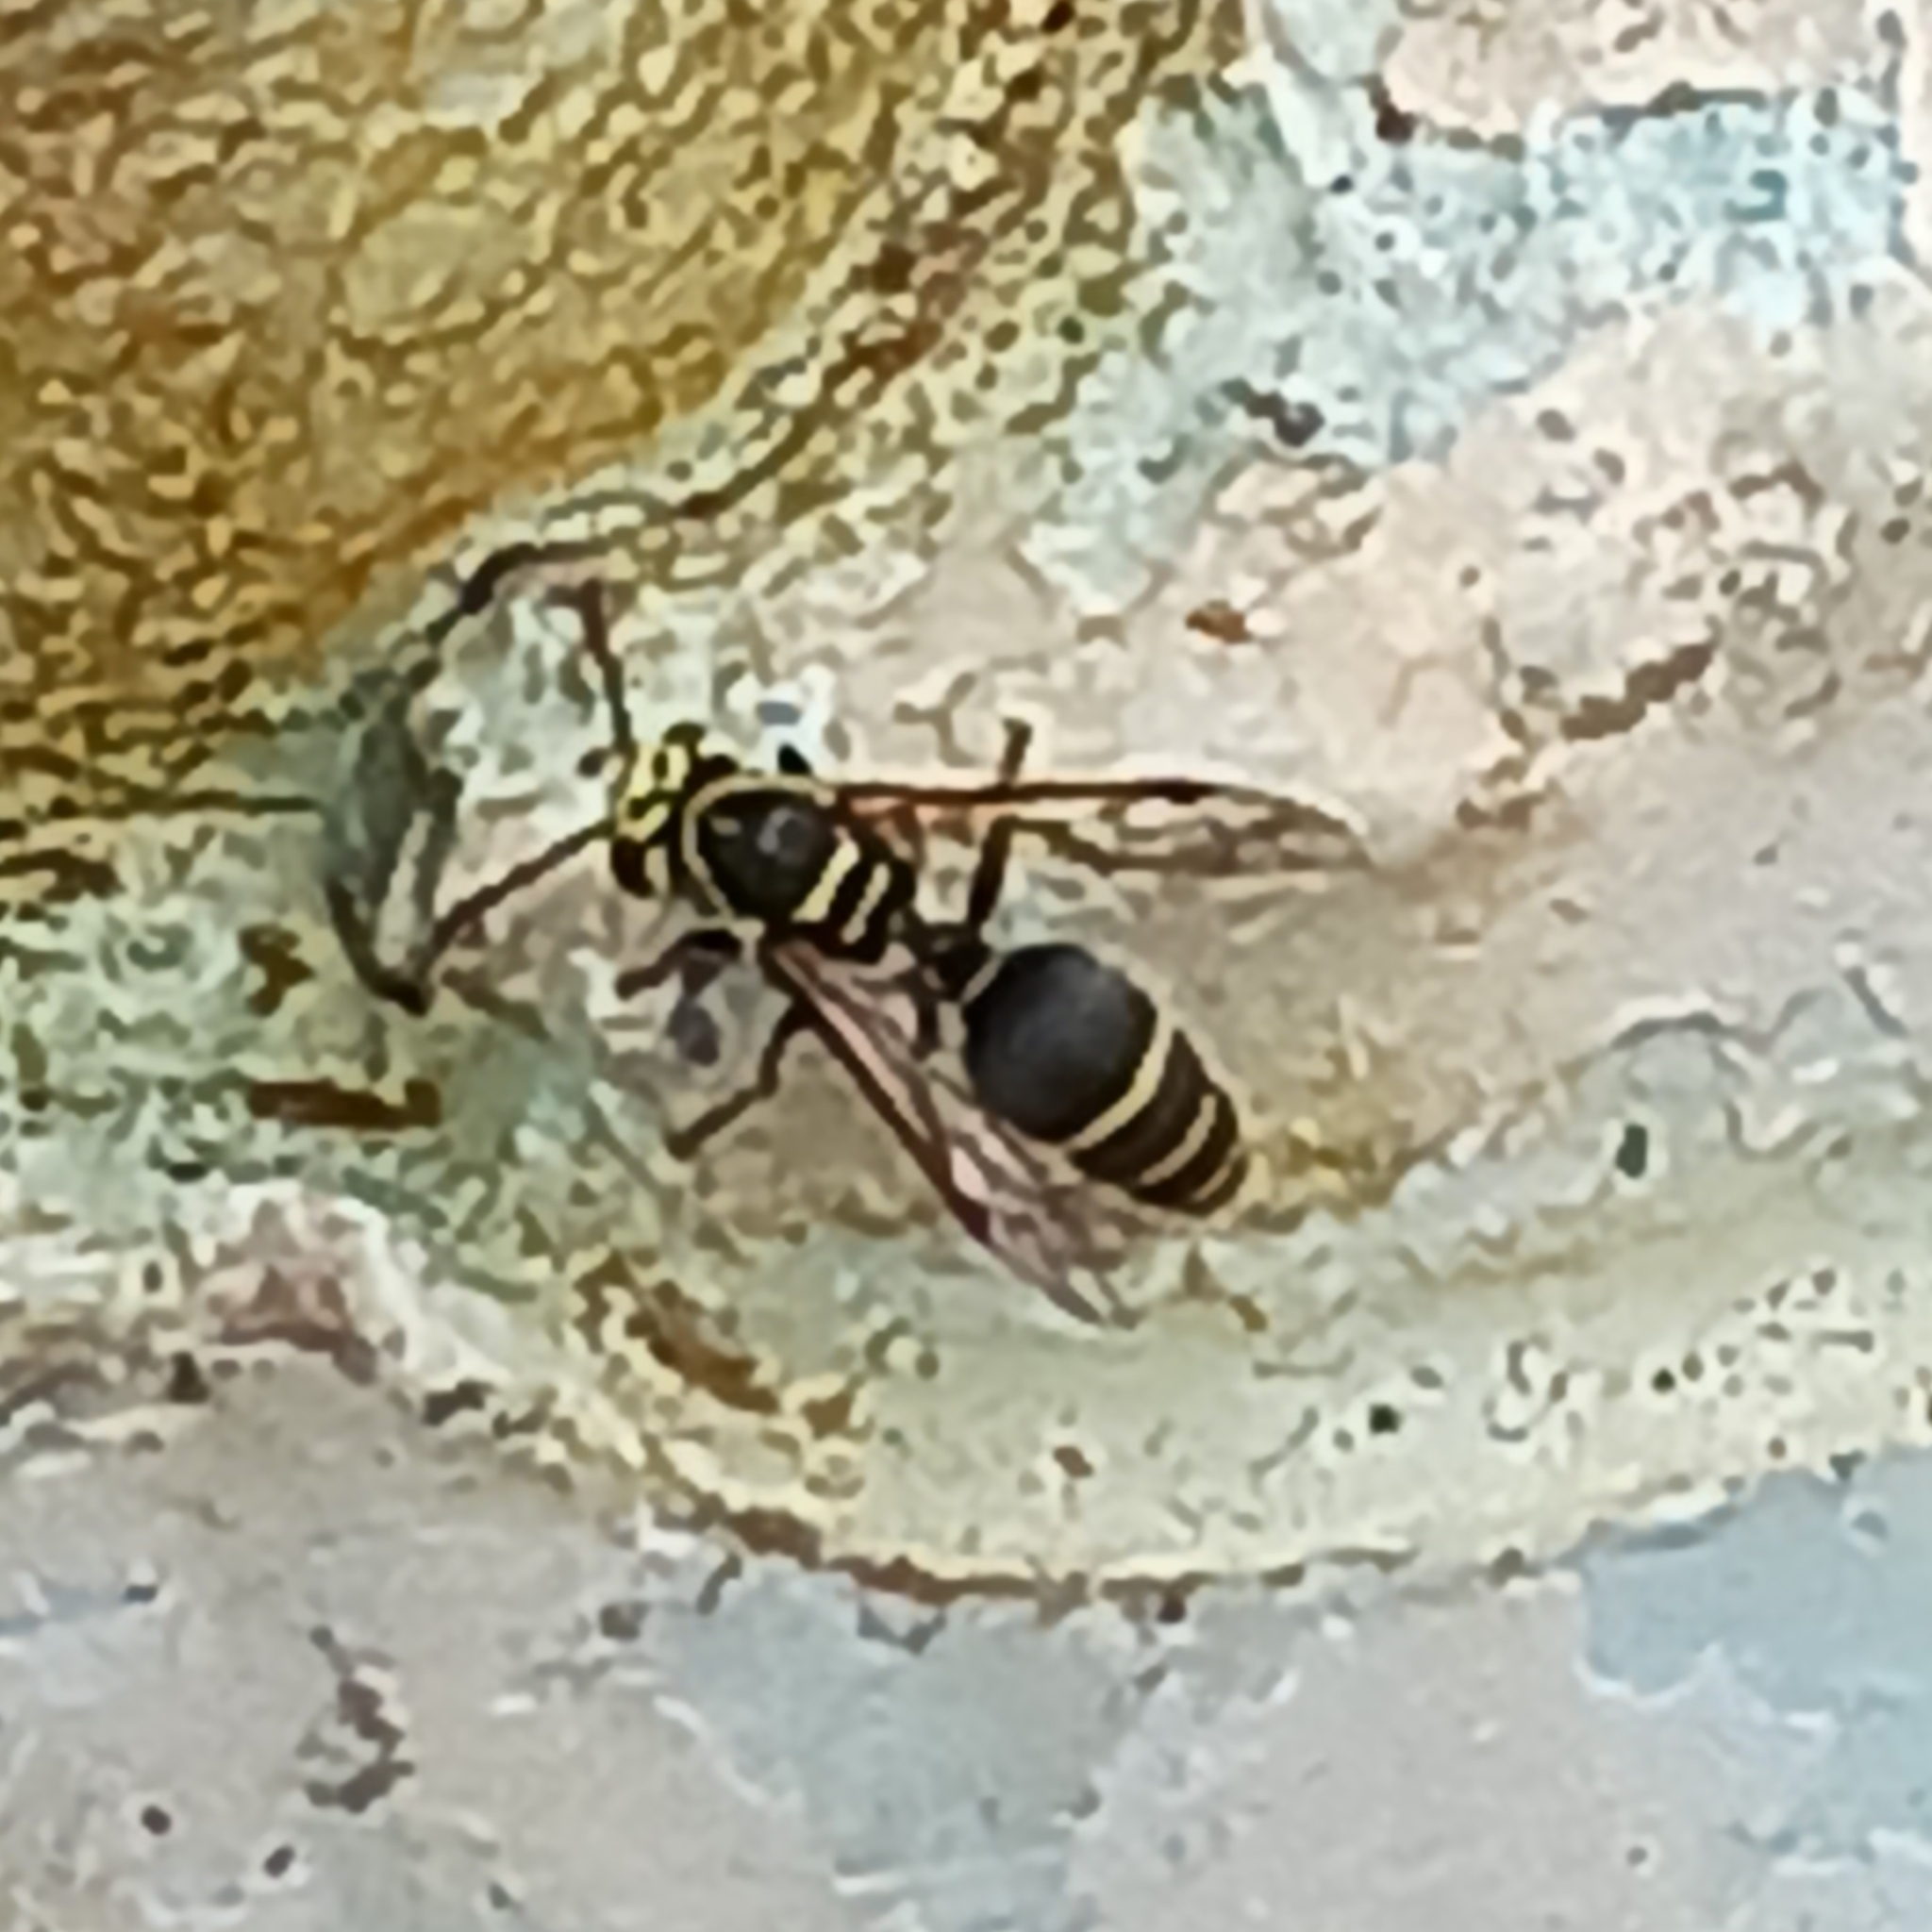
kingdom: Animalia
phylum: Arthropoda
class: Insecta
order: Hymenoptera
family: Vespidae
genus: Protonectarina
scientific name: Protonectarina sylveirae
